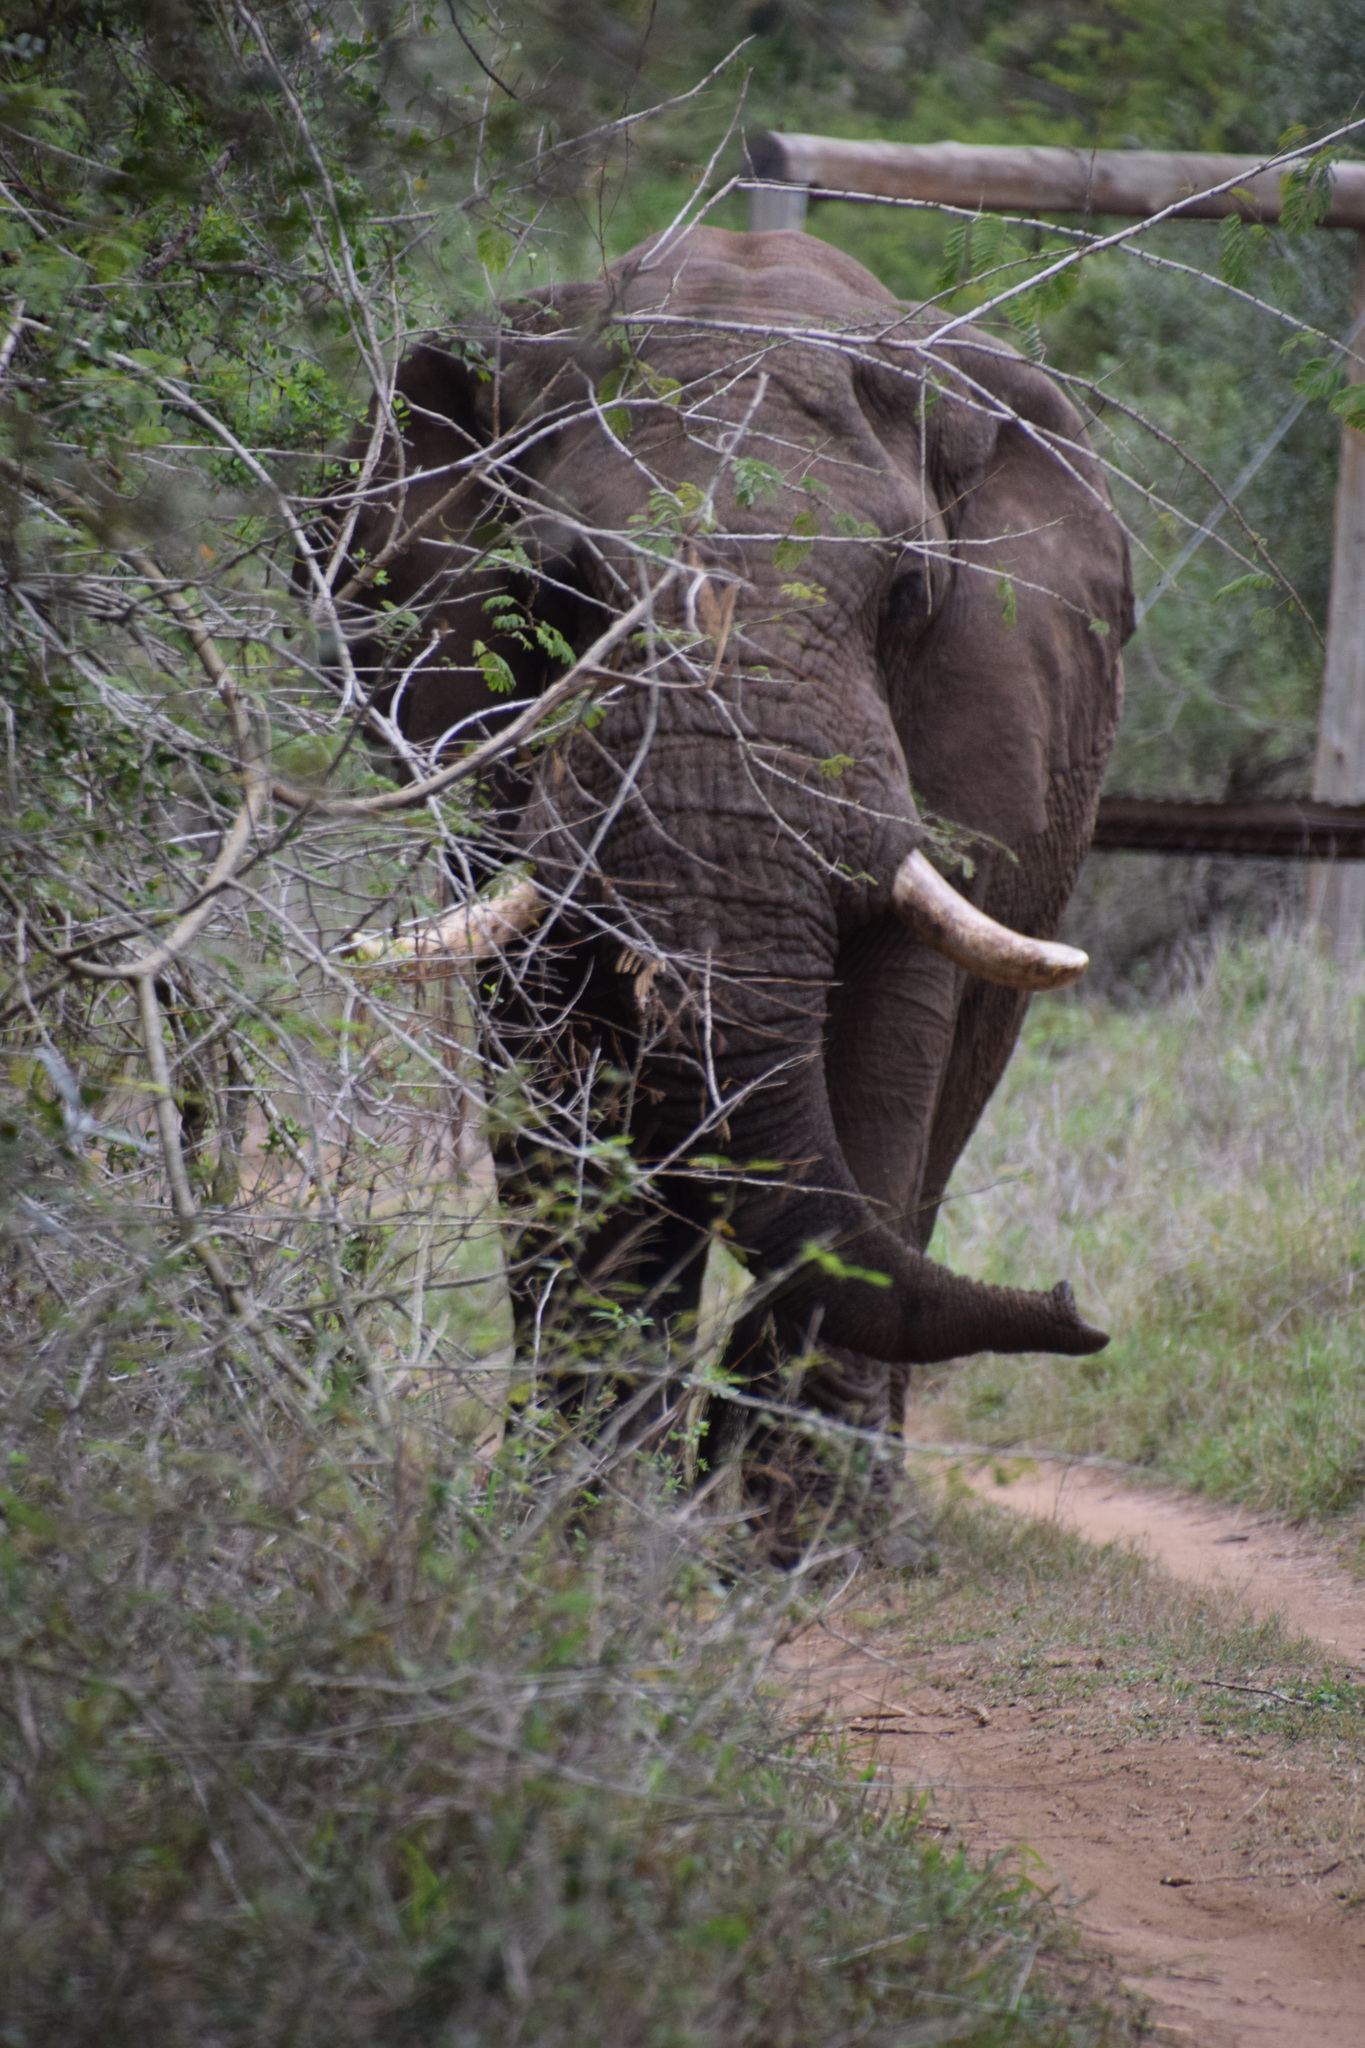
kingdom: Animalia
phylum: Chordata
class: Mammalia
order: Proboscidea
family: Elephantidae
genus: Loxodonta
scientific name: Loxodonta africana
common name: African elephant
